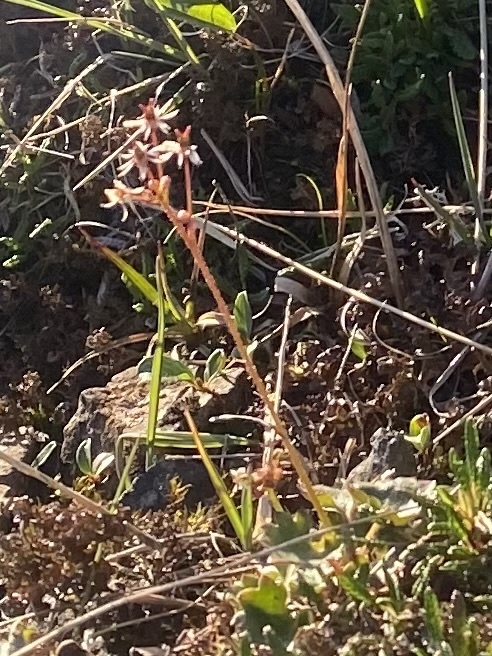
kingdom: Plantae
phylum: Tracheophyta
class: Magnoliopsida
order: Saxifragales
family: Saxifragaceae
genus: Micranthes
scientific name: Micranthes nelsoniana
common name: Nelson's saxifrage
